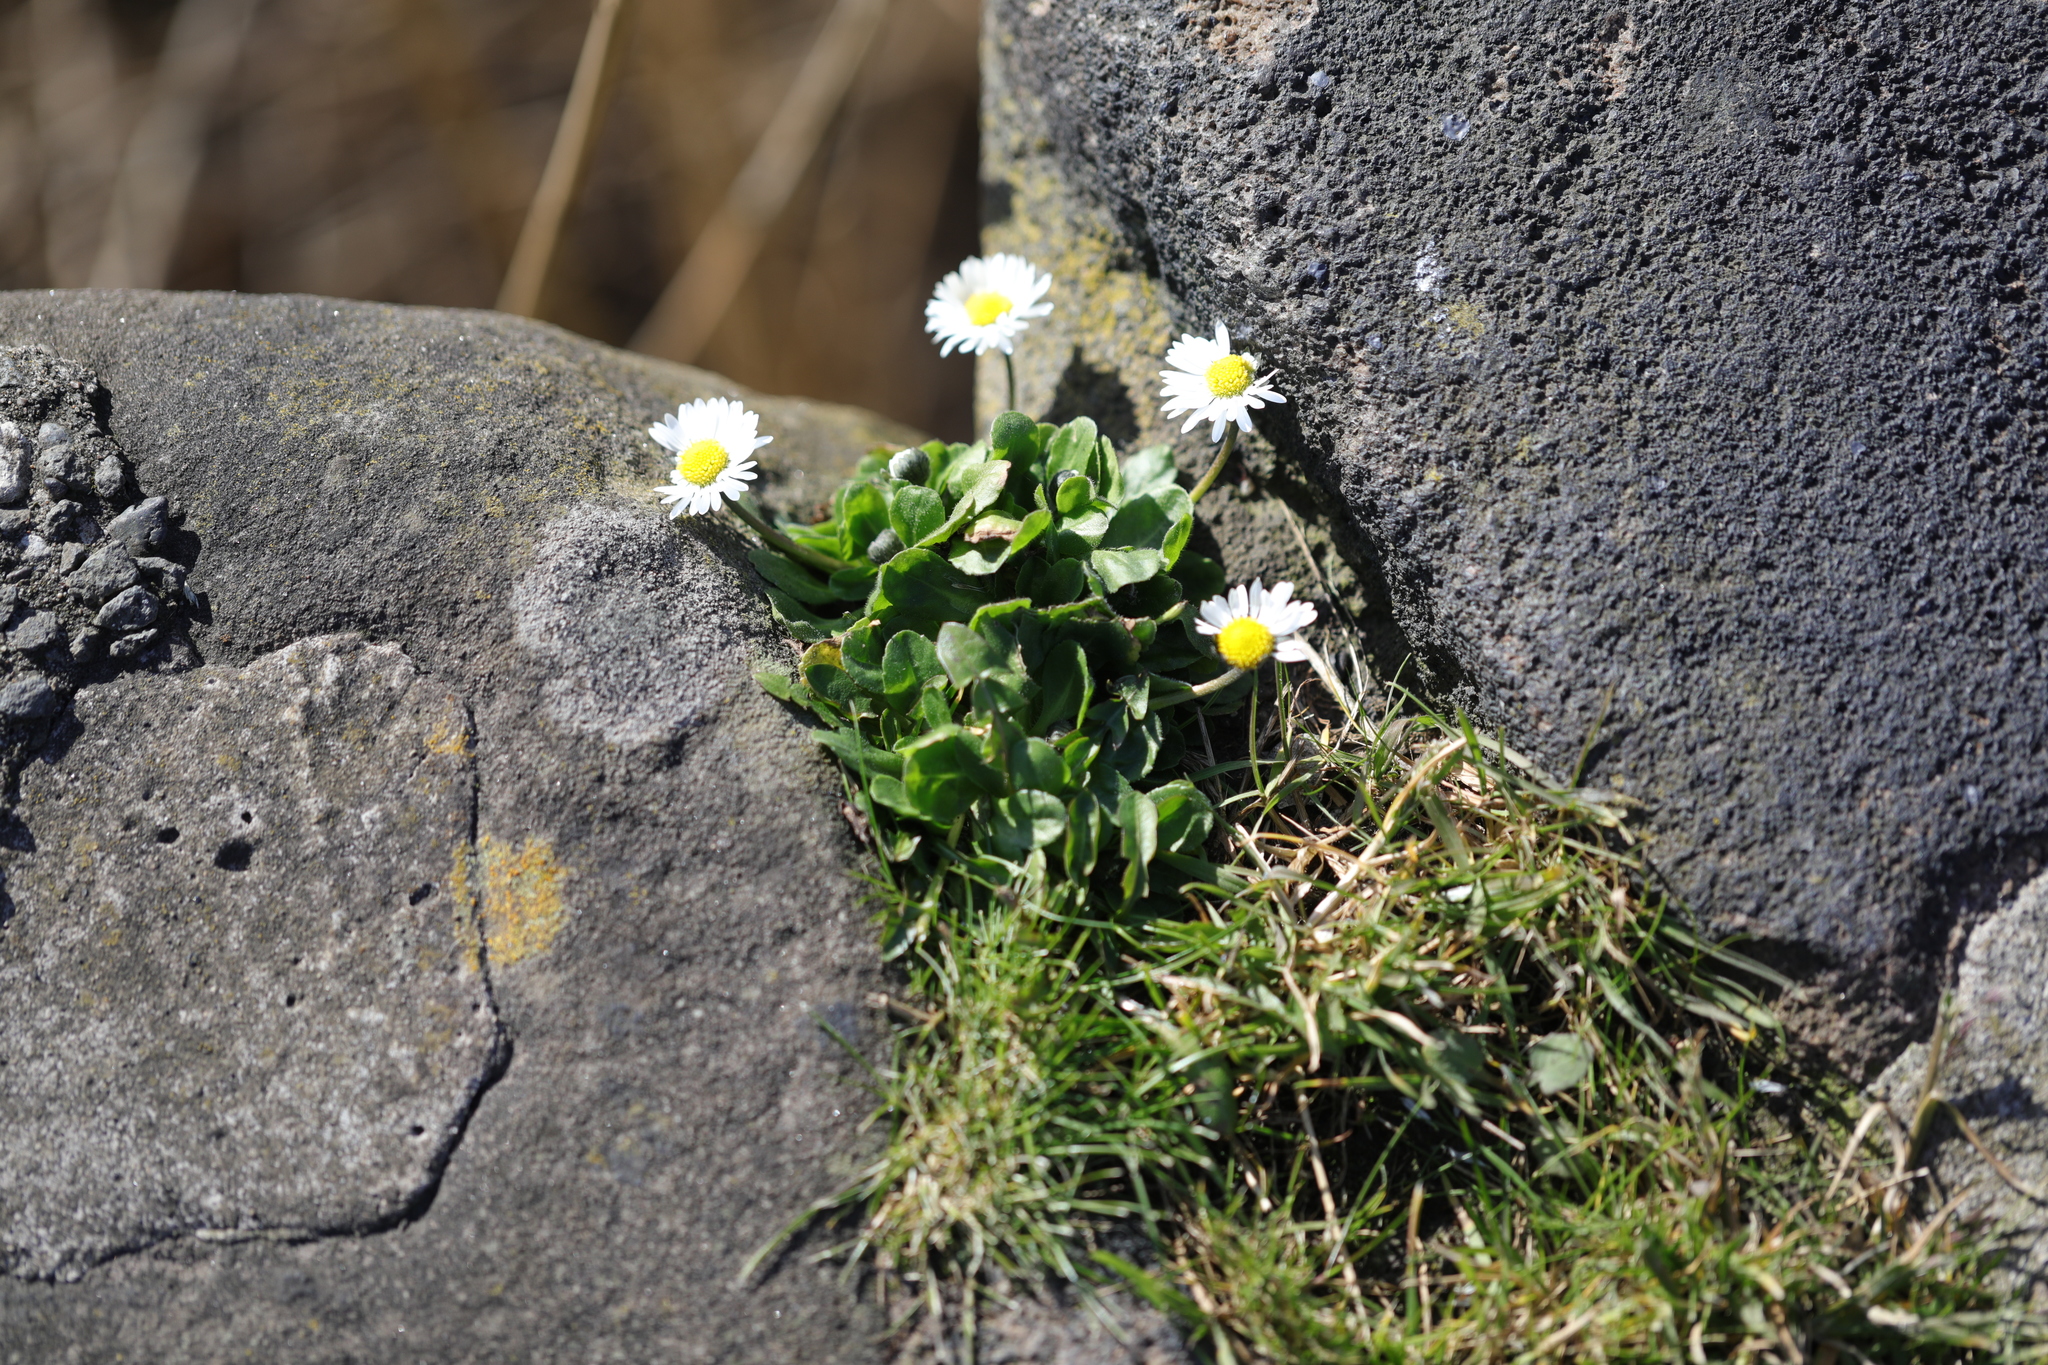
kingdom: Plantae
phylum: Tracheophyta
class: Magnoliopsida
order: Asterales
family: Asteraceae
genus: Bellis
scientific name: Bellis perennis
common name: Lawndaisy
